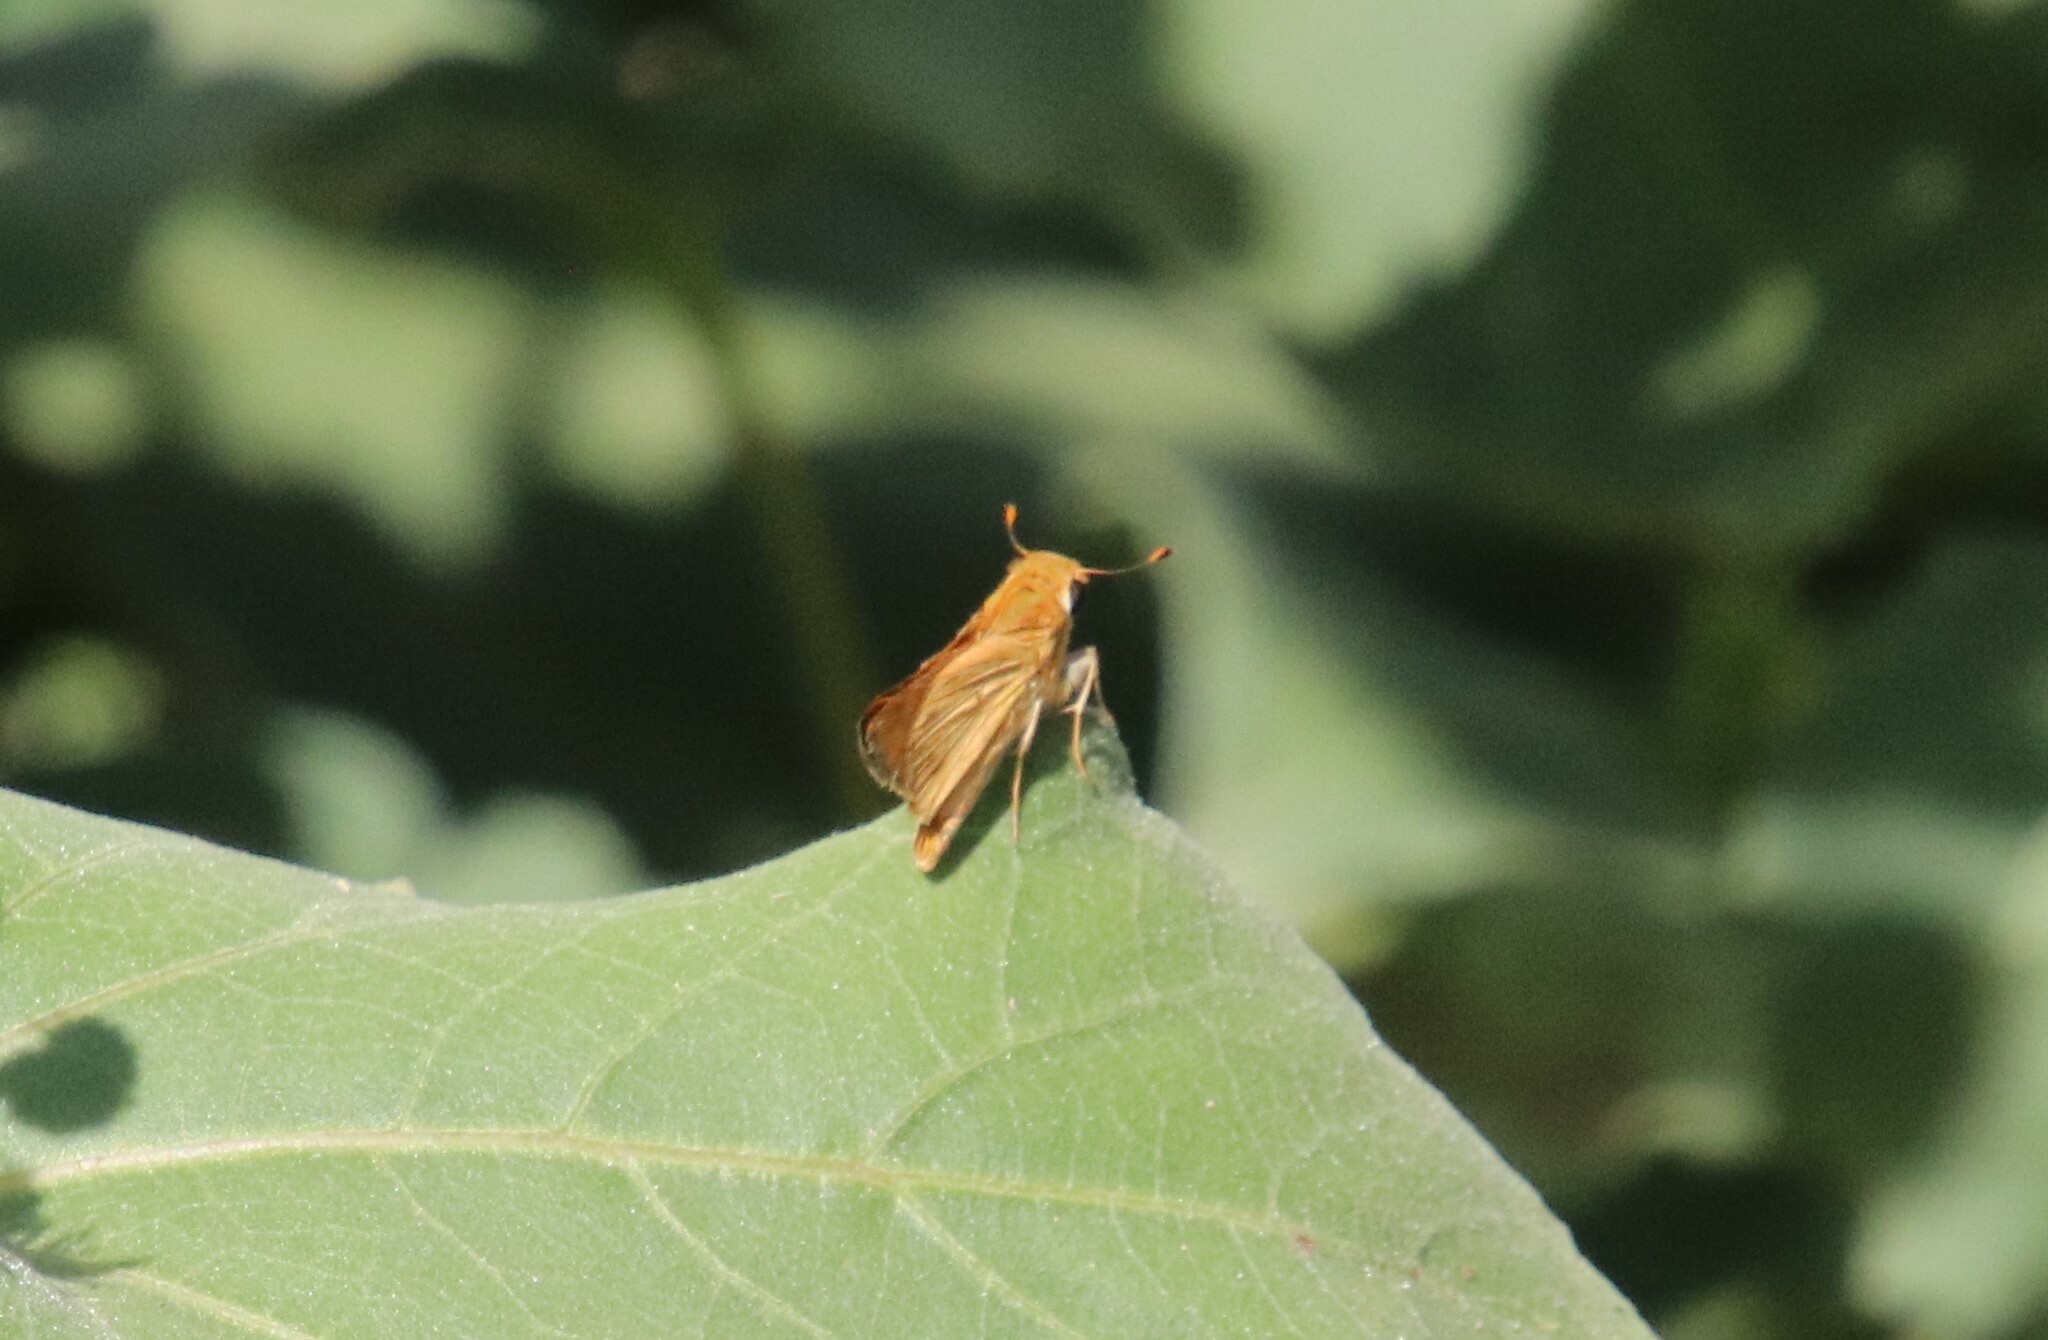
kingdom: Animalia
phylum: Arthropoda
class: Insecta
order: Lepidoptera
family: Hesperiidae
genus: Hylephila
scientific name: Hylephila phyleus
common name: Fiery skipper
